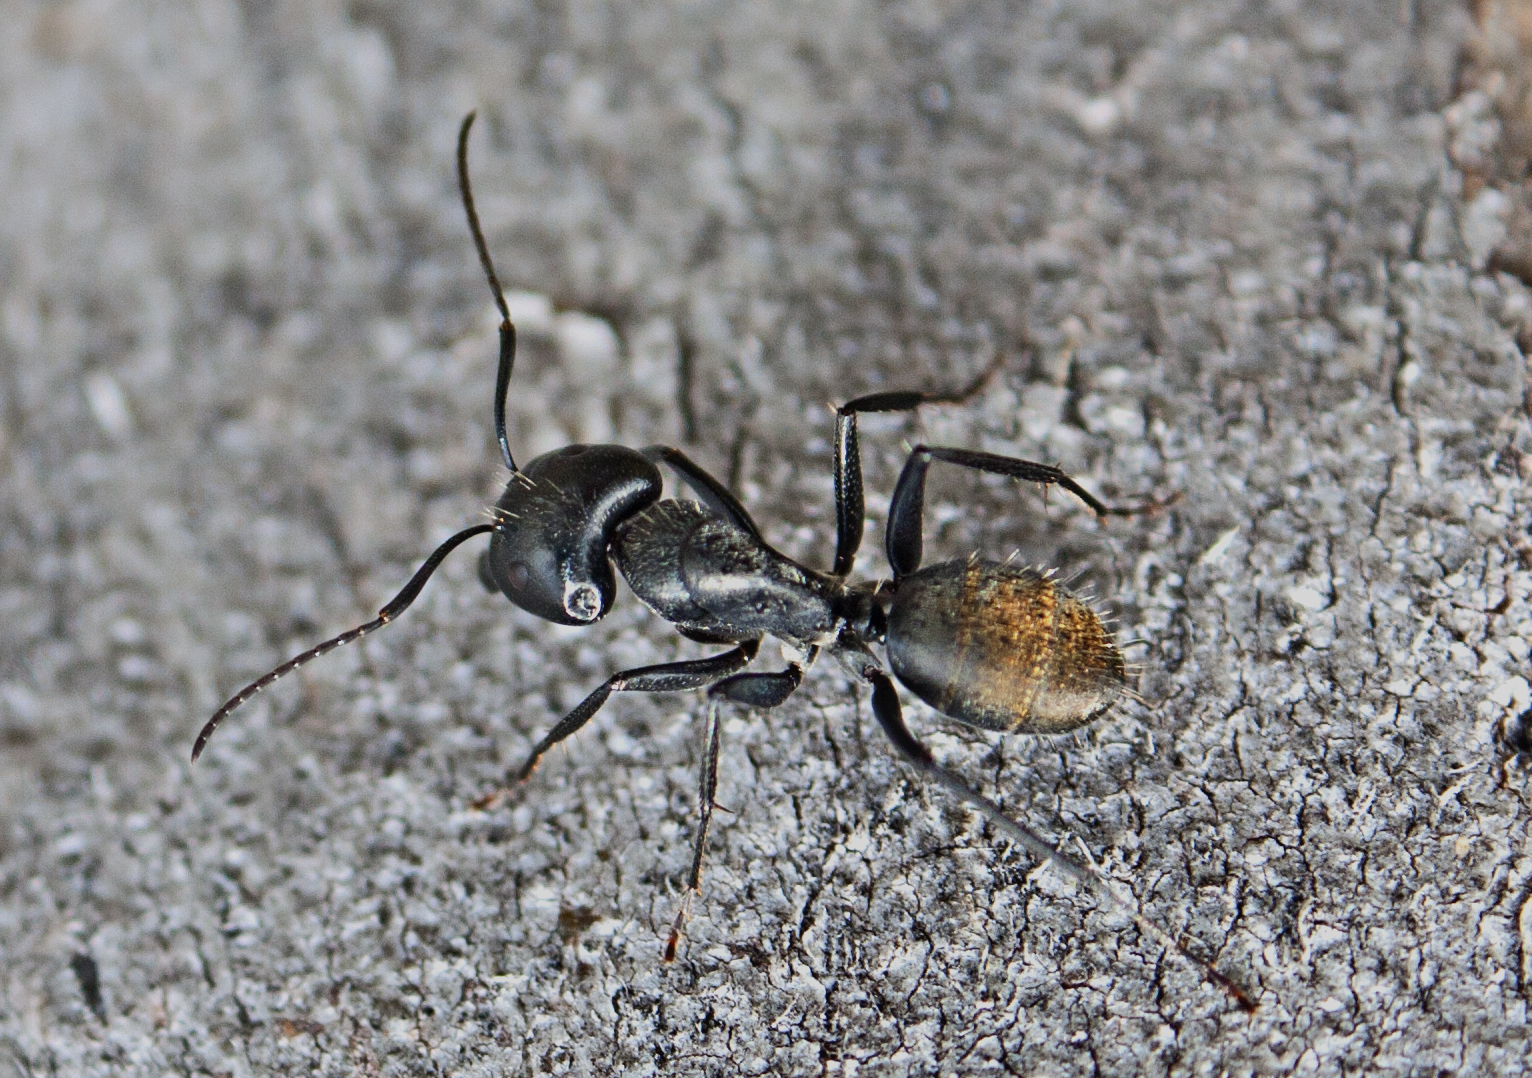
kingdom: Animalia
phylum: Arthropoda
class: Insecta
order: Hymenoptera
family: Formicidae
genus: Camponotus
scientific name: Camponotus aeneopilosus
